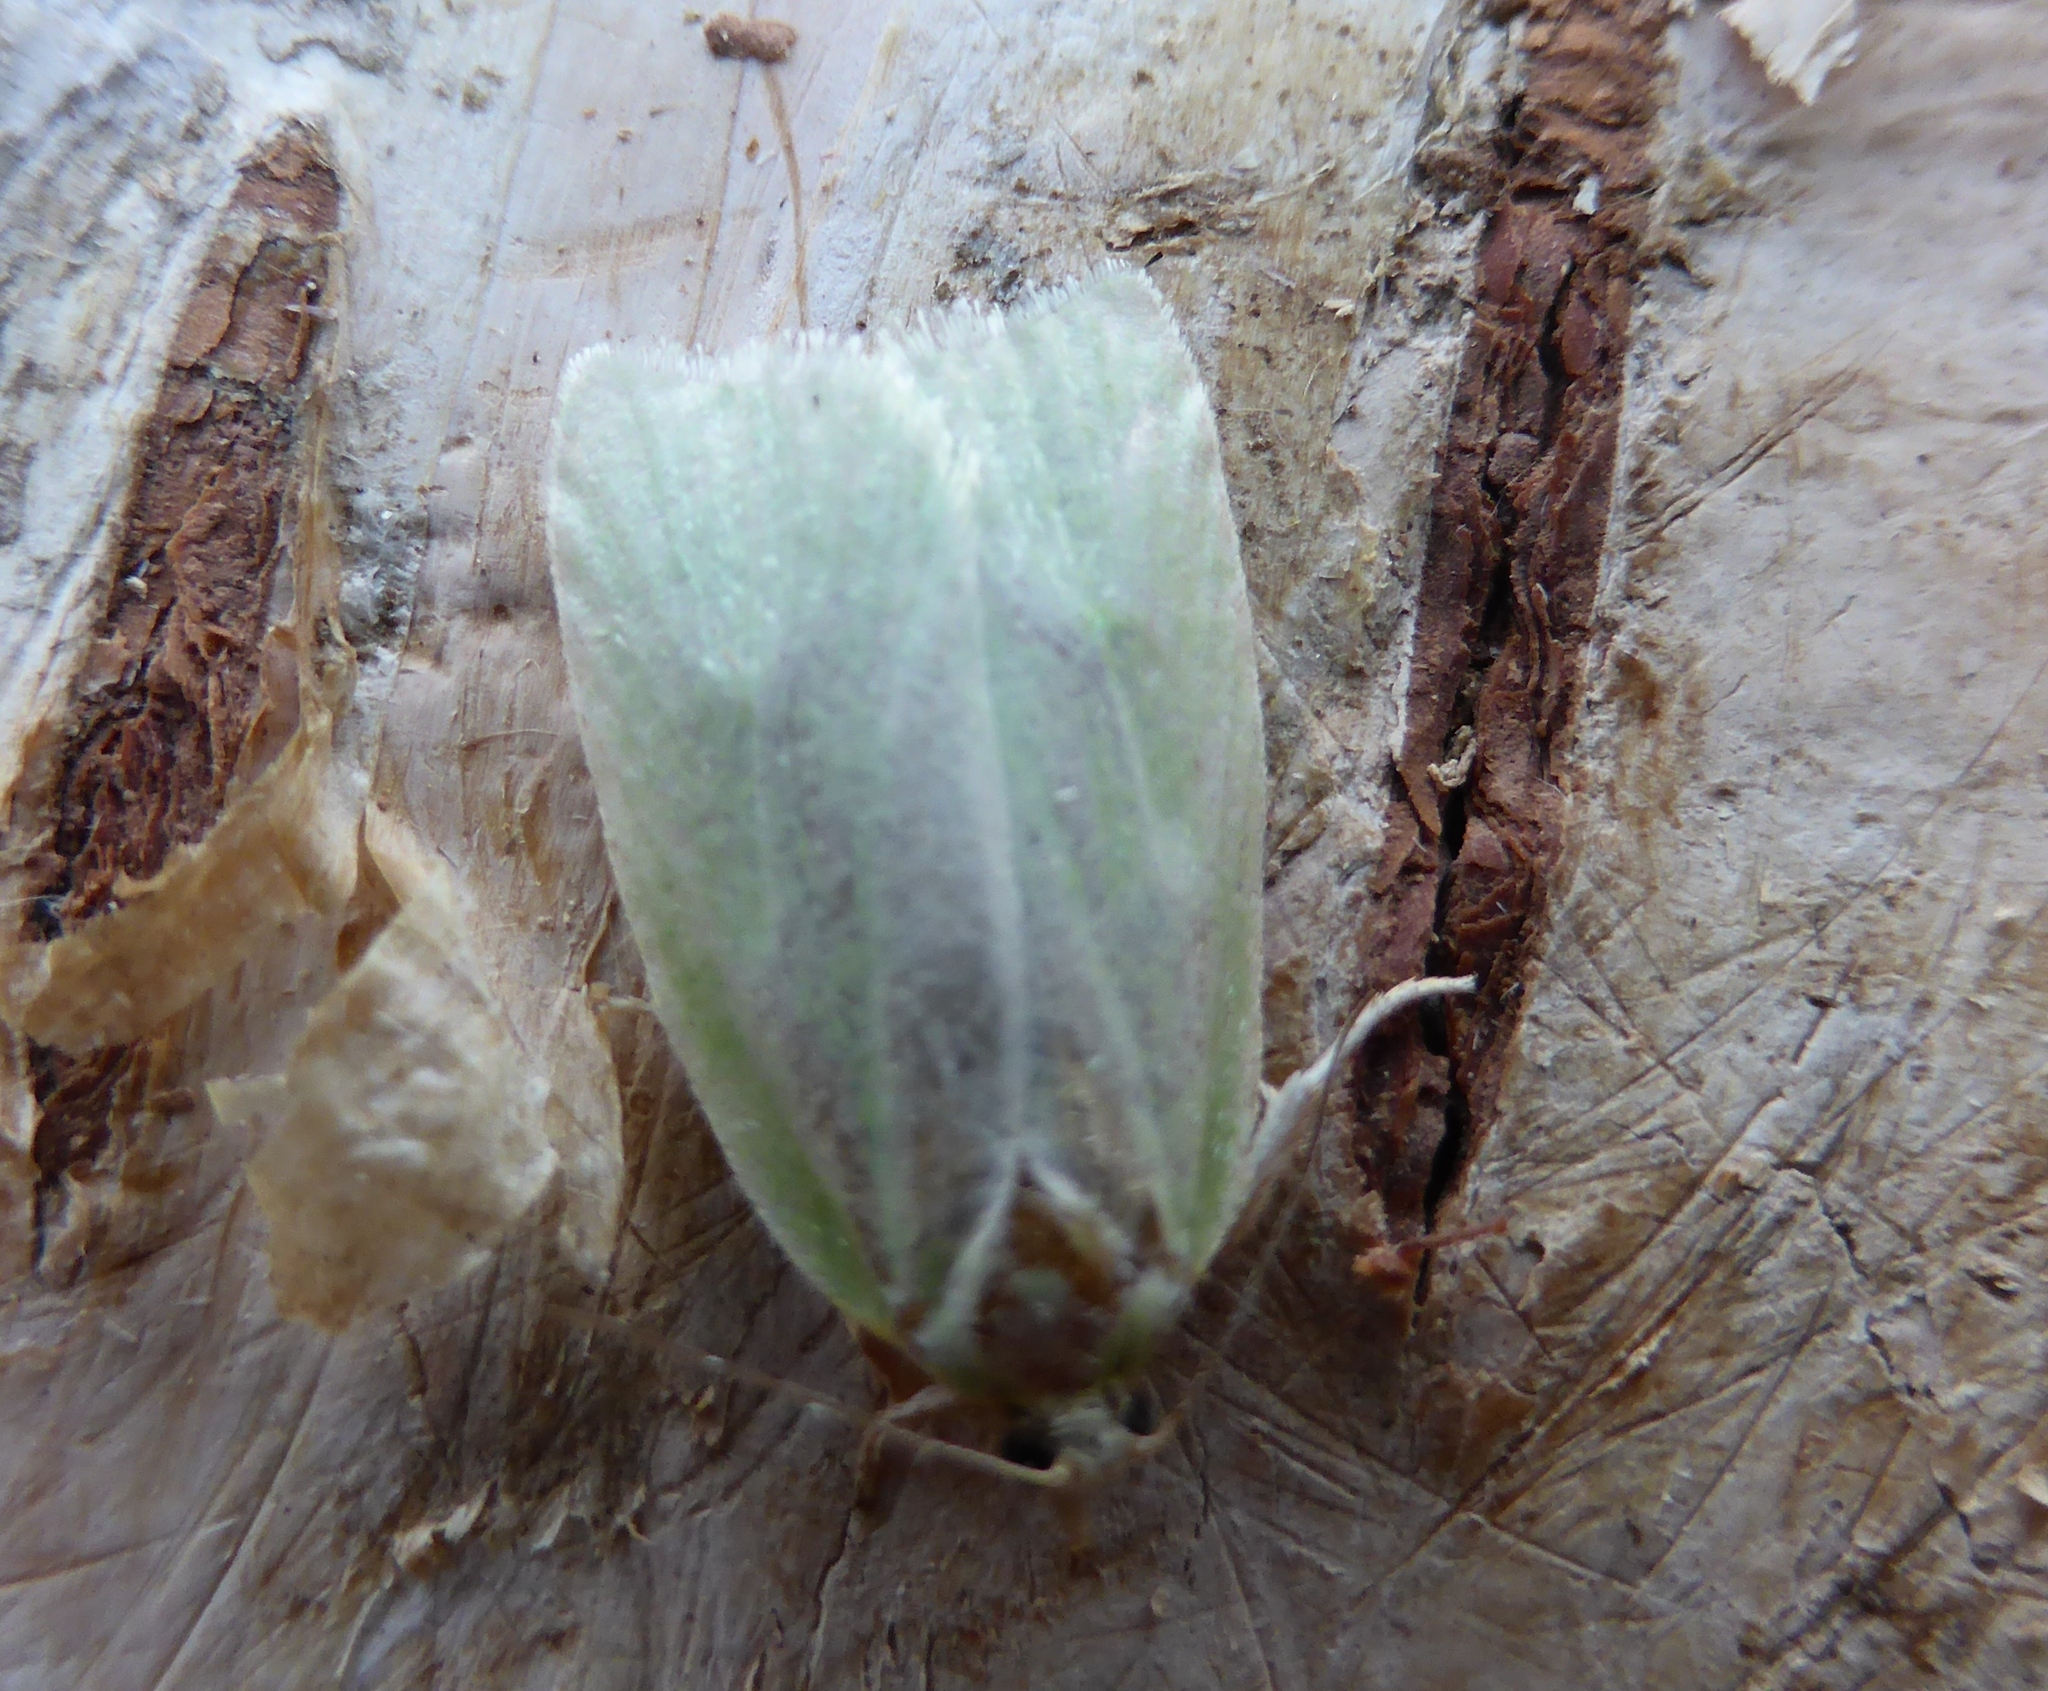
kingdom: Animalia
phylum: Arthropoda
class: Insecta
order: Lepidoptera
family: Tortricidae
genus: Tortrix
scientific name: Tortrix viridana
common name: Green oak tortrix
